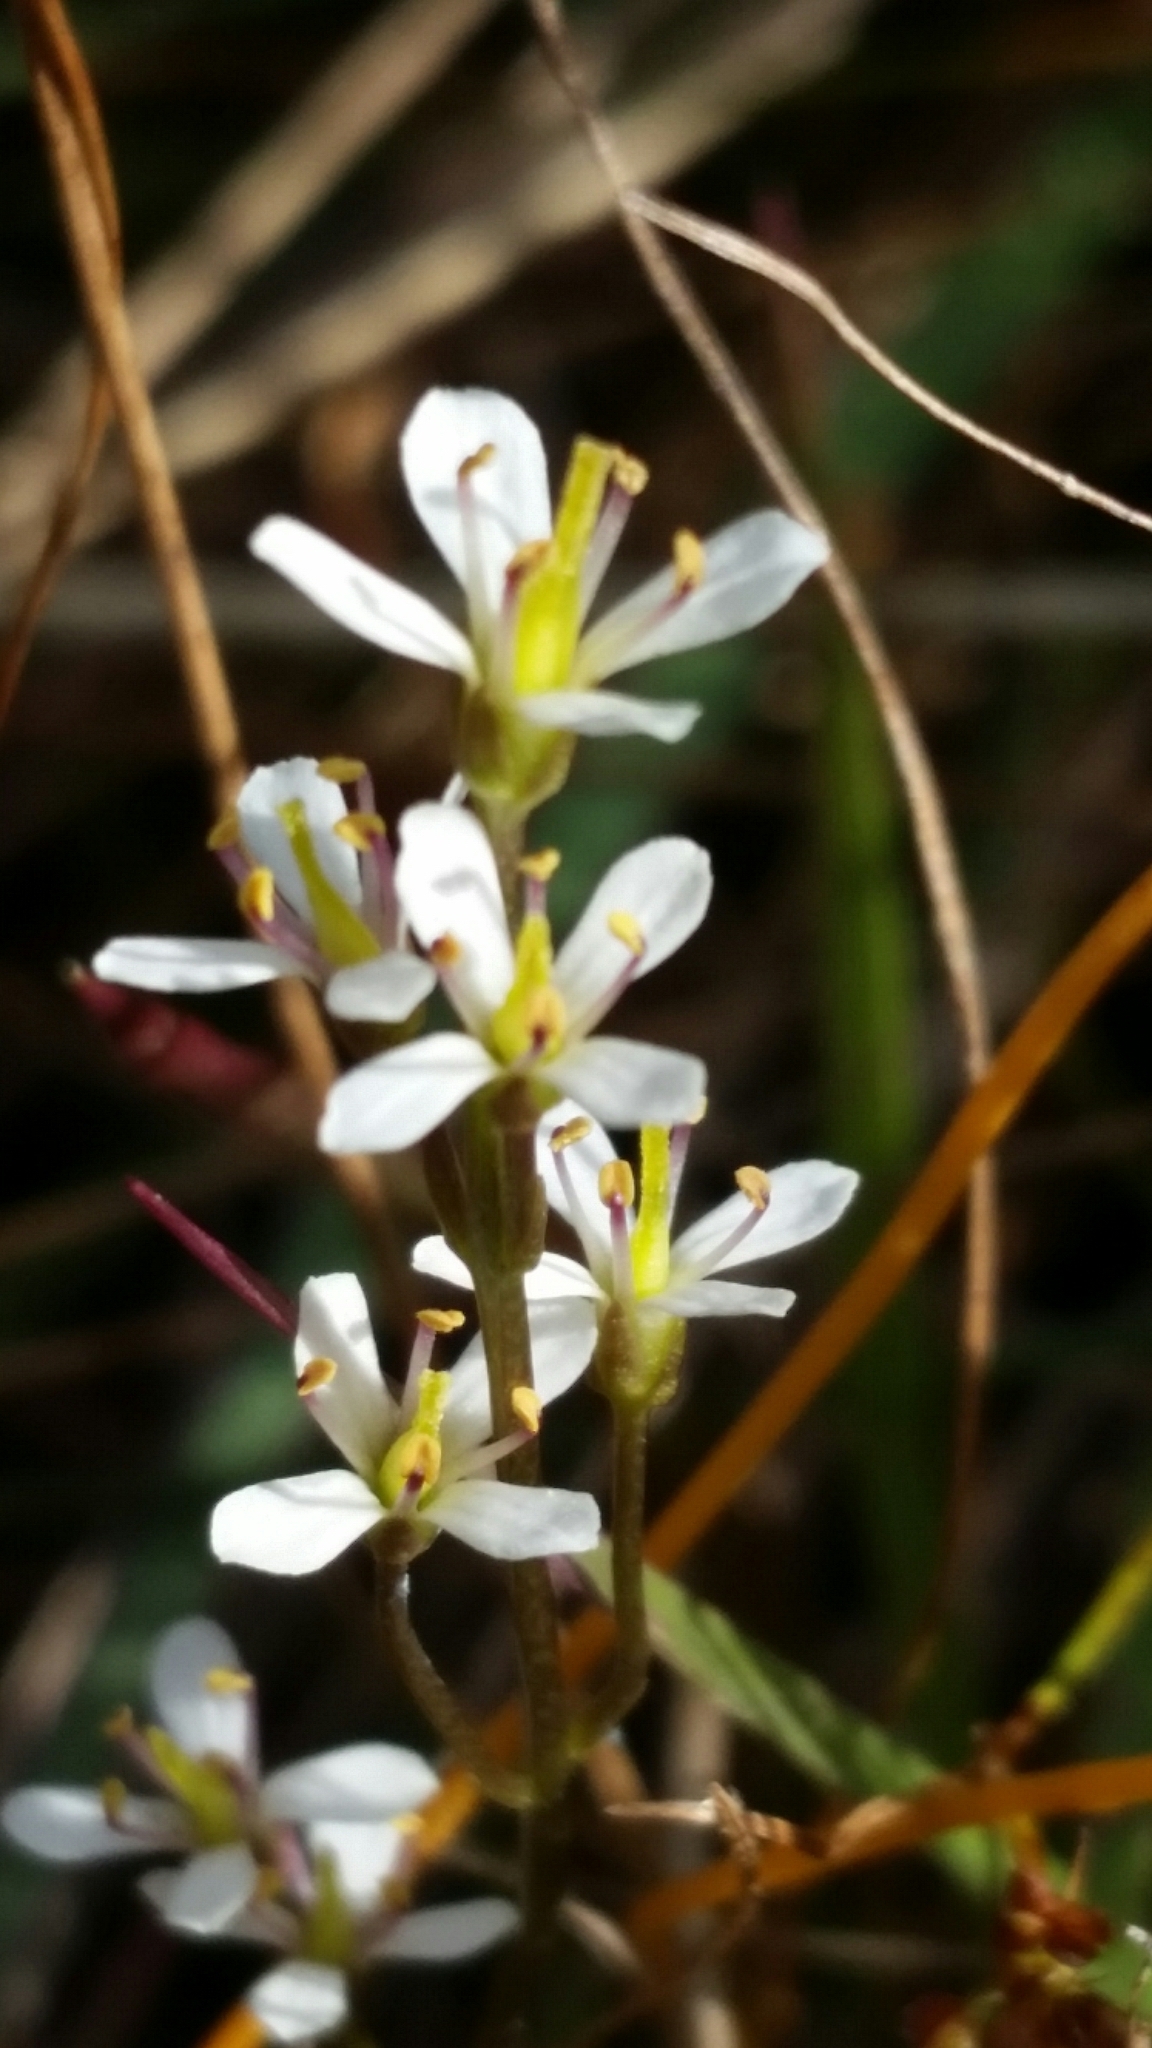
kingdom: Plantae
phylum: Tracheophyta
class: Magnoliopsida
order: Gentianales
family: Gentianaceae
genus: Bartonia
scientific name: Bartonia verna
